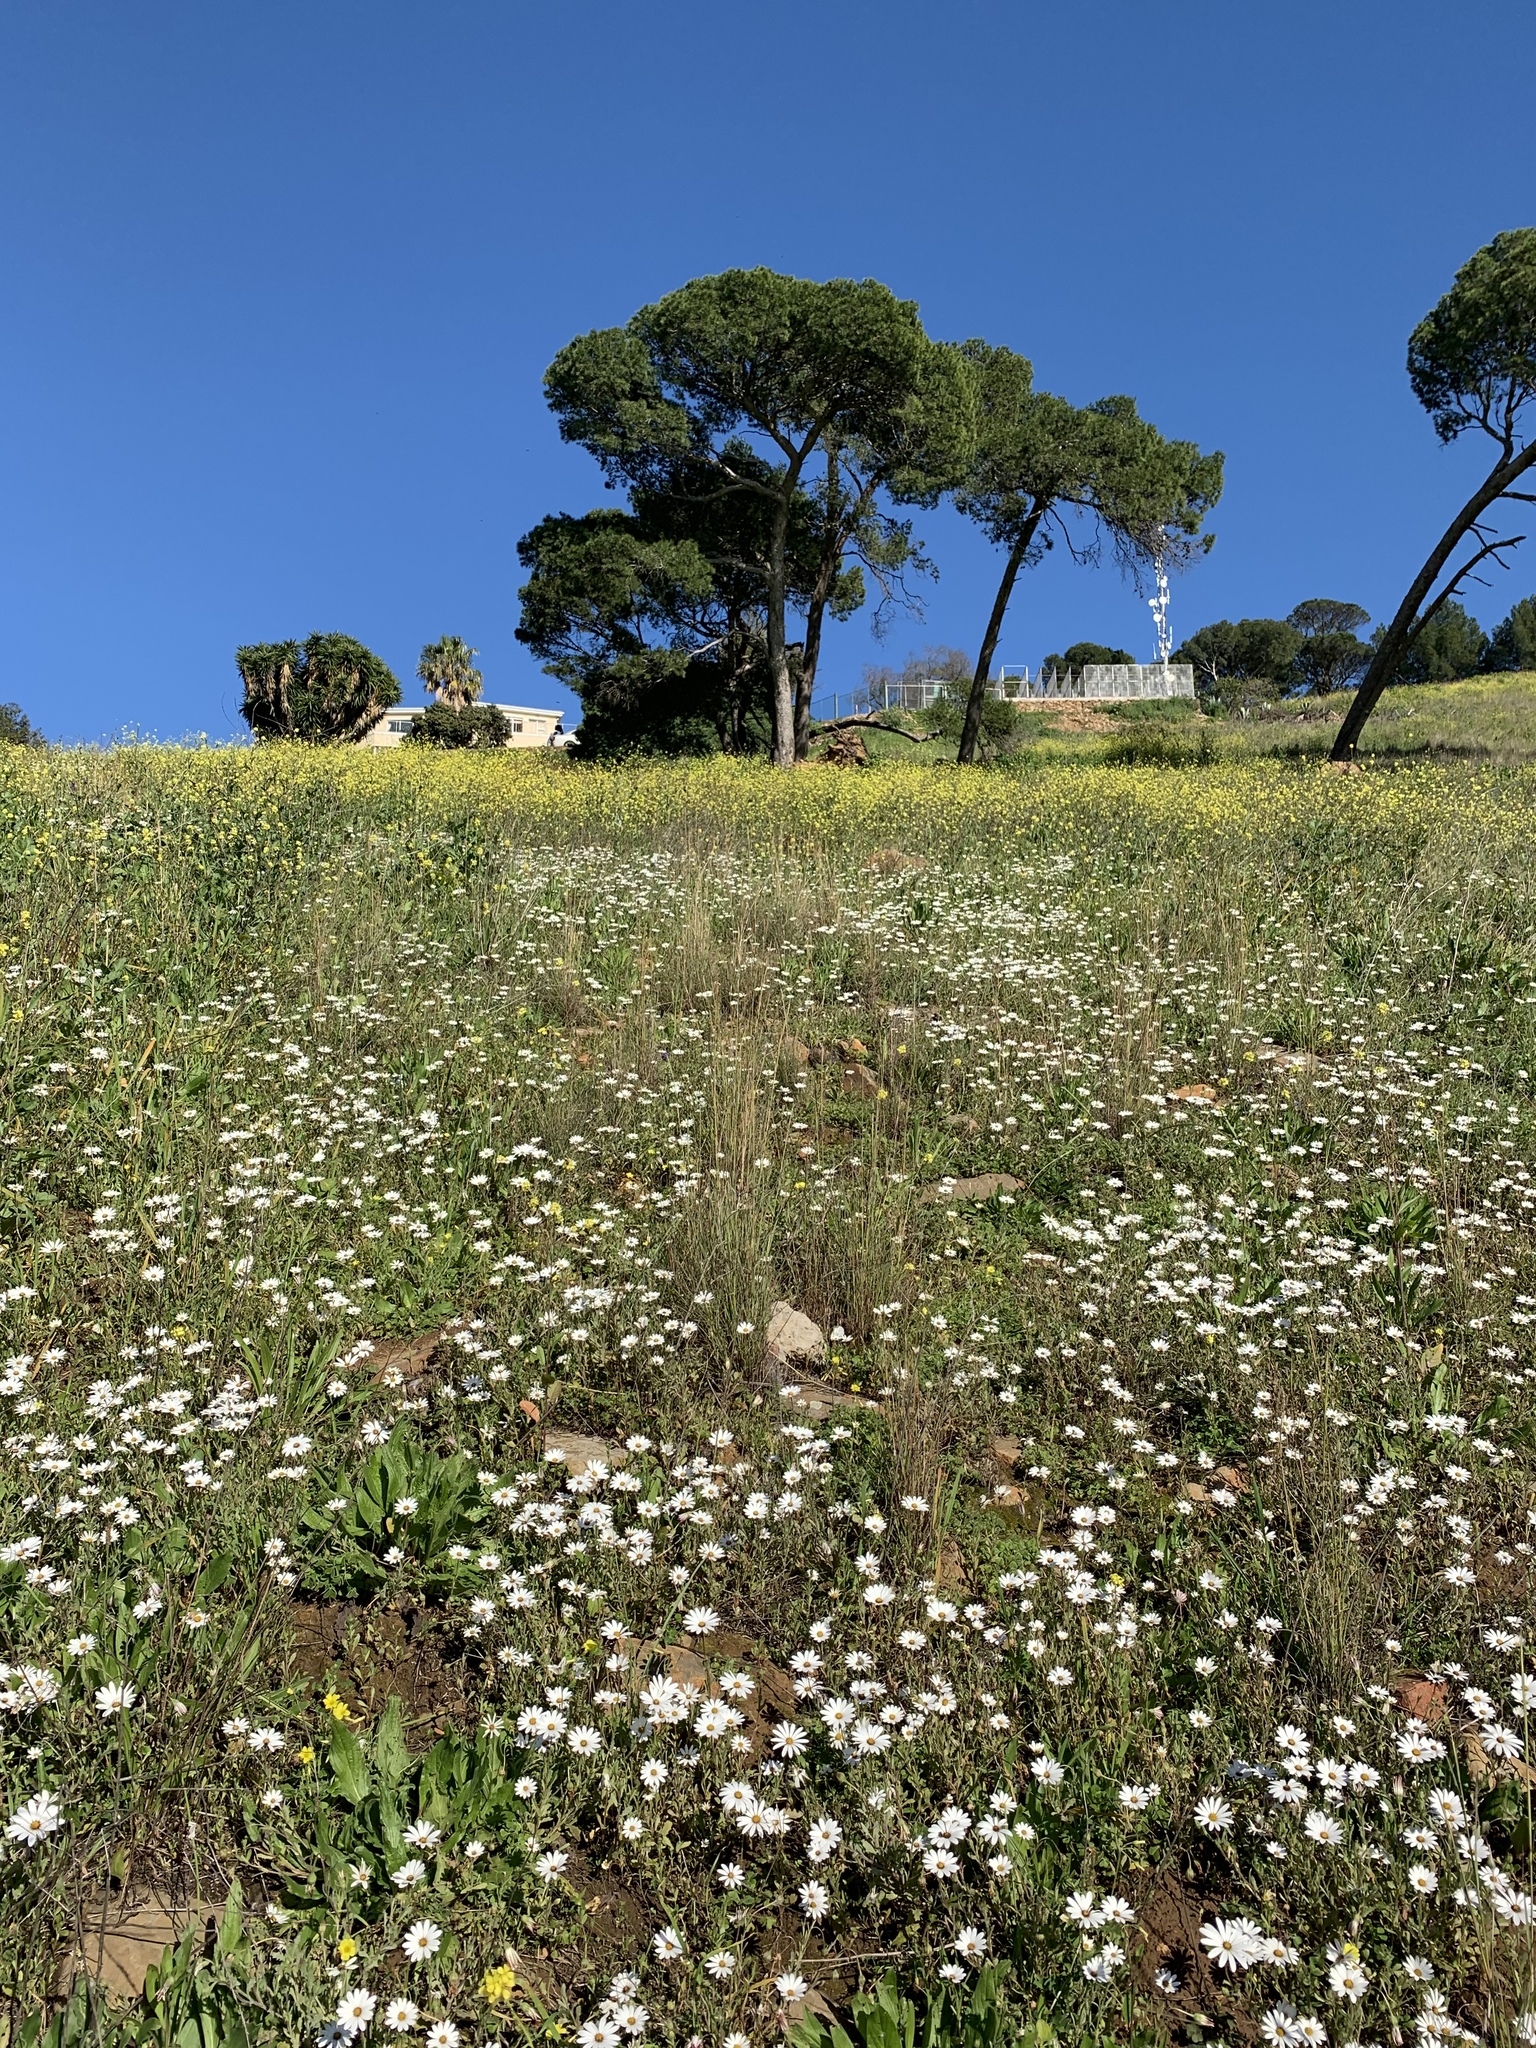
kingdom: Plantae
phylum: Tracheophyta
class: Magnoliopsida
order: Asterales
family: Asteraceae
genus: Dimorphotheca
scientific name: Dimorphotheca pluvialis
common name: Weather prophet
